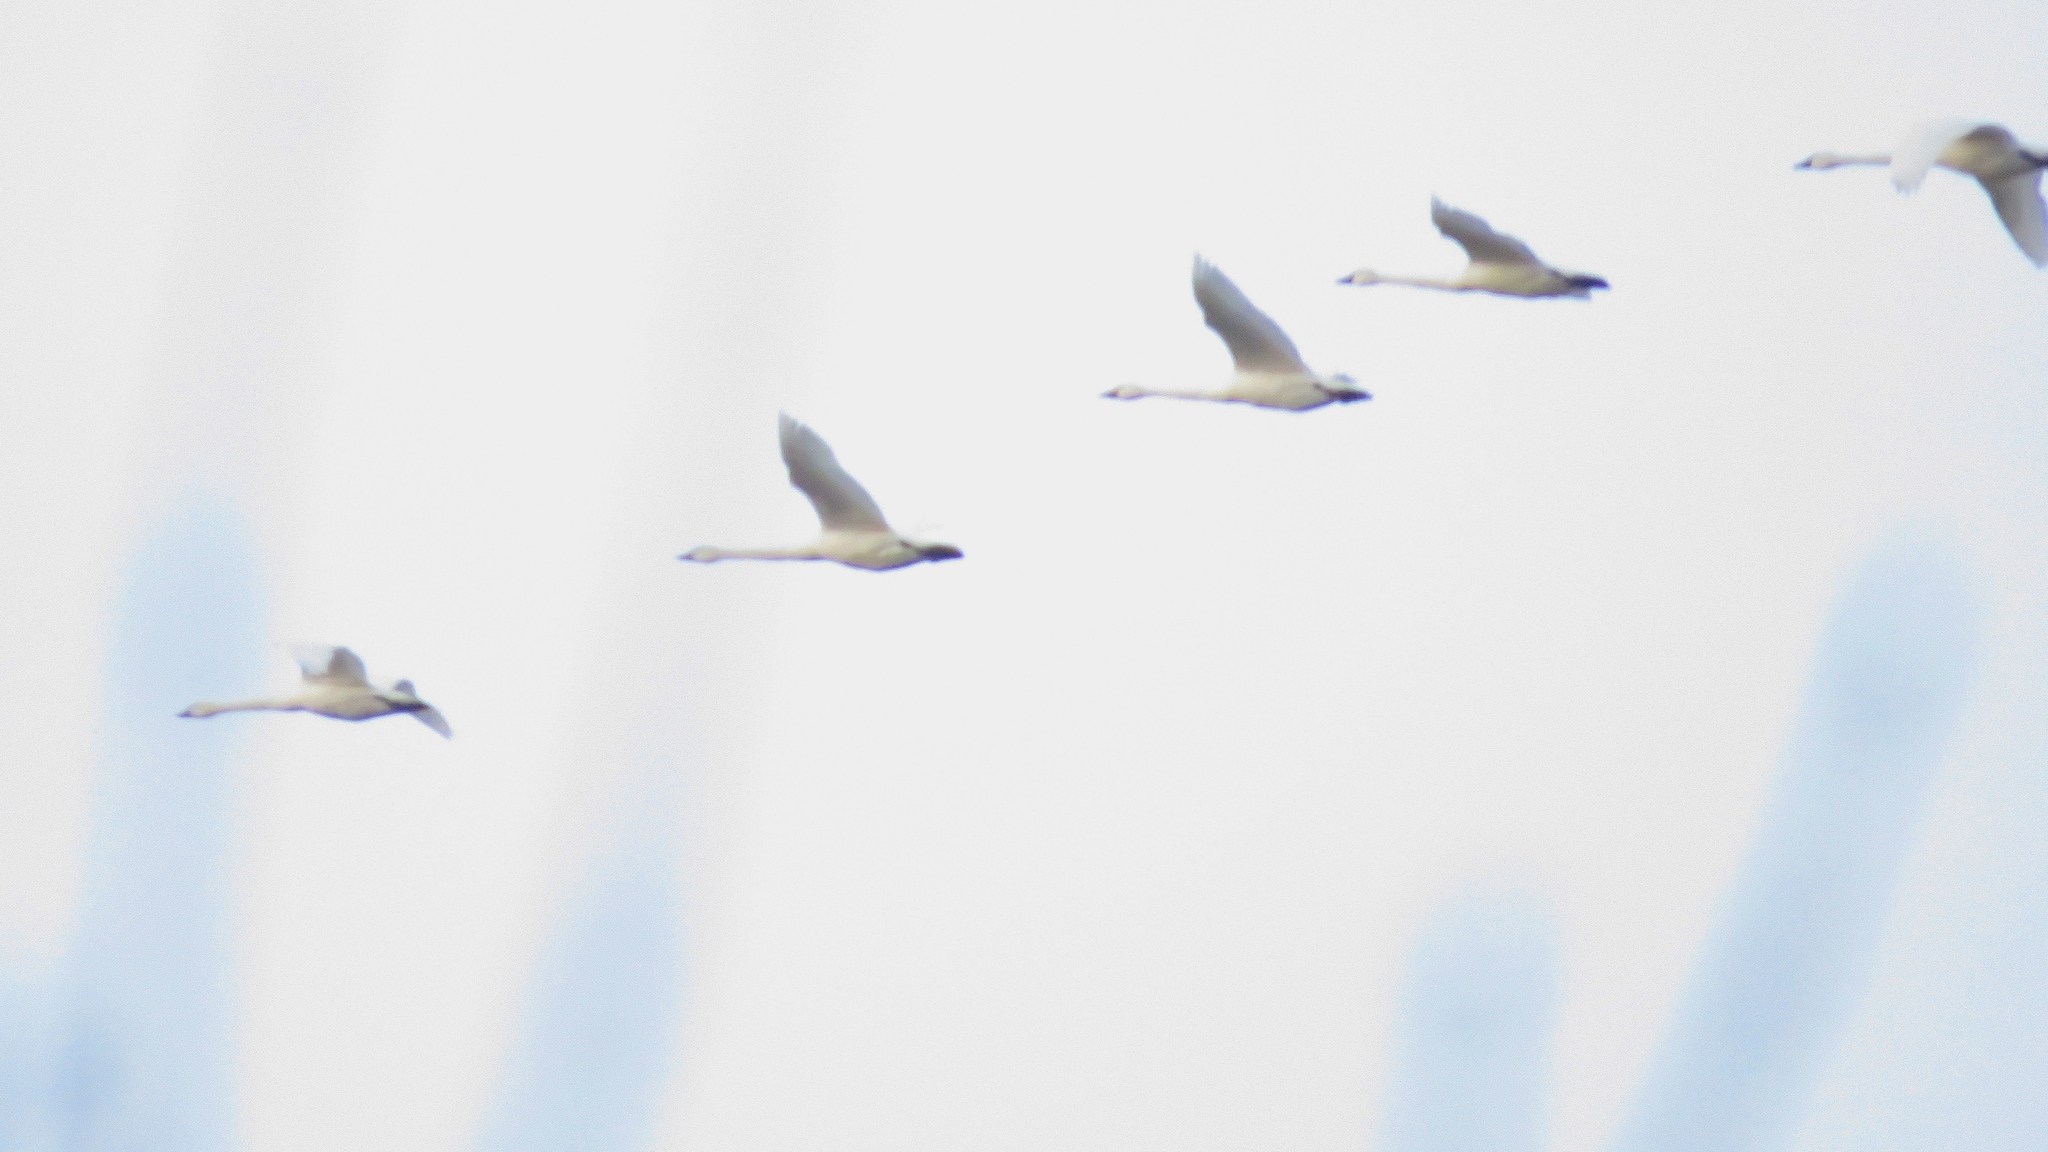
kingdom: Animalia
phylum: Chordata
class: Aves
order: Anseriformes
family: Anatidae
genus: Cygnus
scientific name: Cygnus columbianus
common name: Tundra swan
